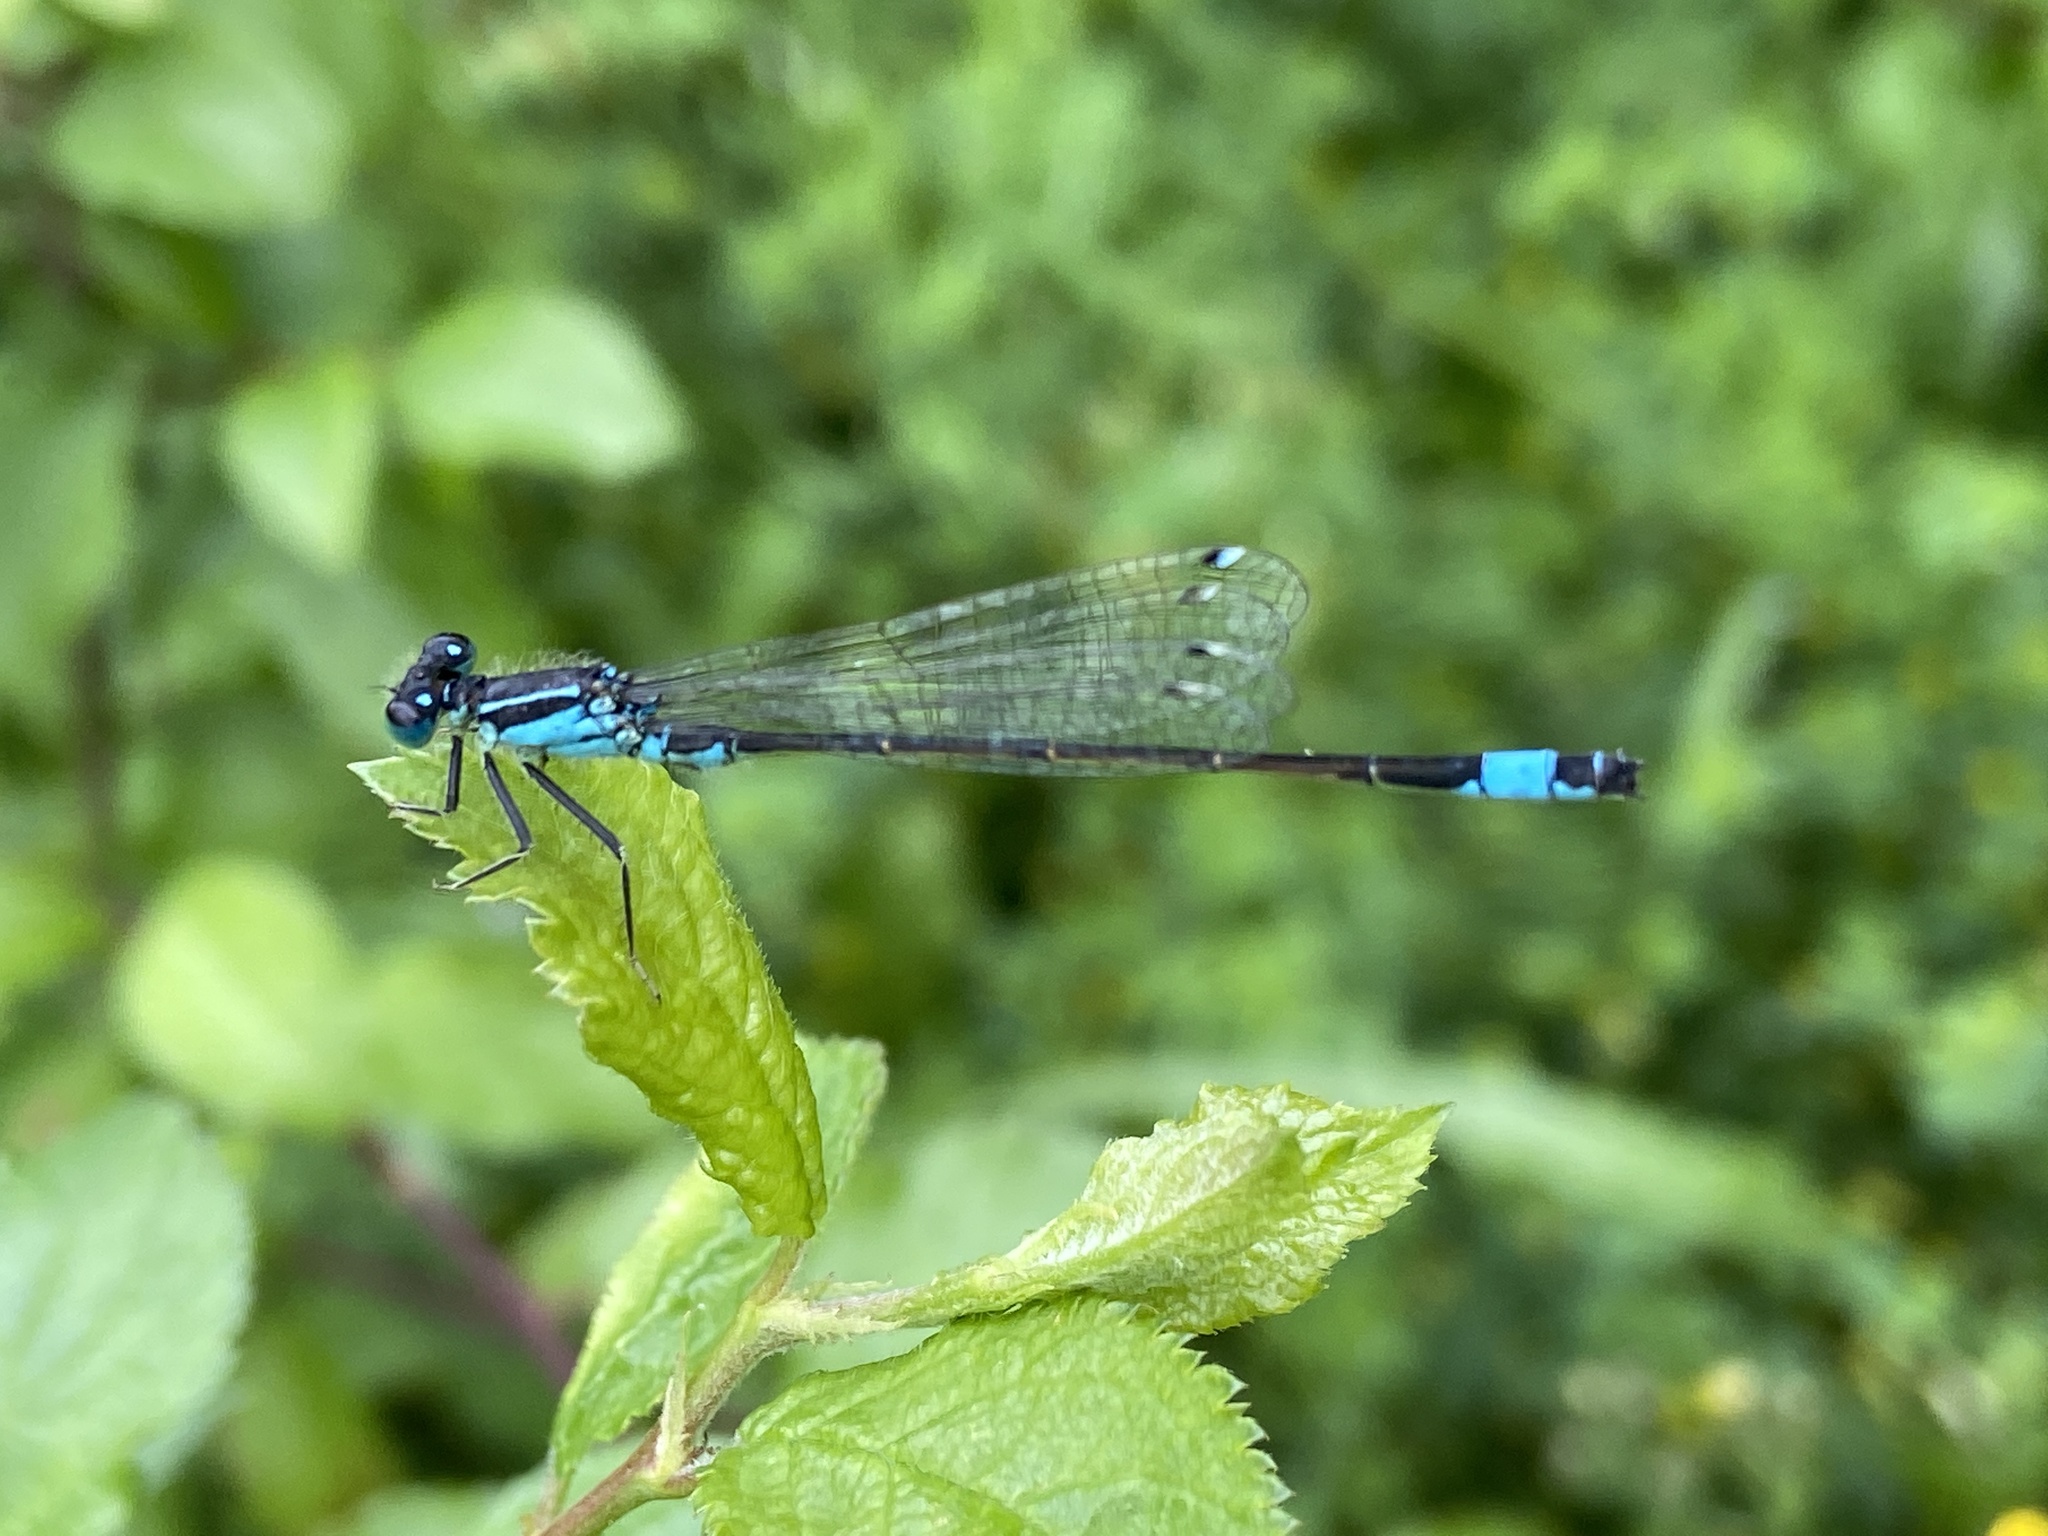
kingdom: Animalia
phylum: Arthropoda
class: Insecta
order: Odonata
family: Coenagrionidae
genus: Ischnura
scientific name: Ischnura elegans
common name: Blue-tailed damselfly
